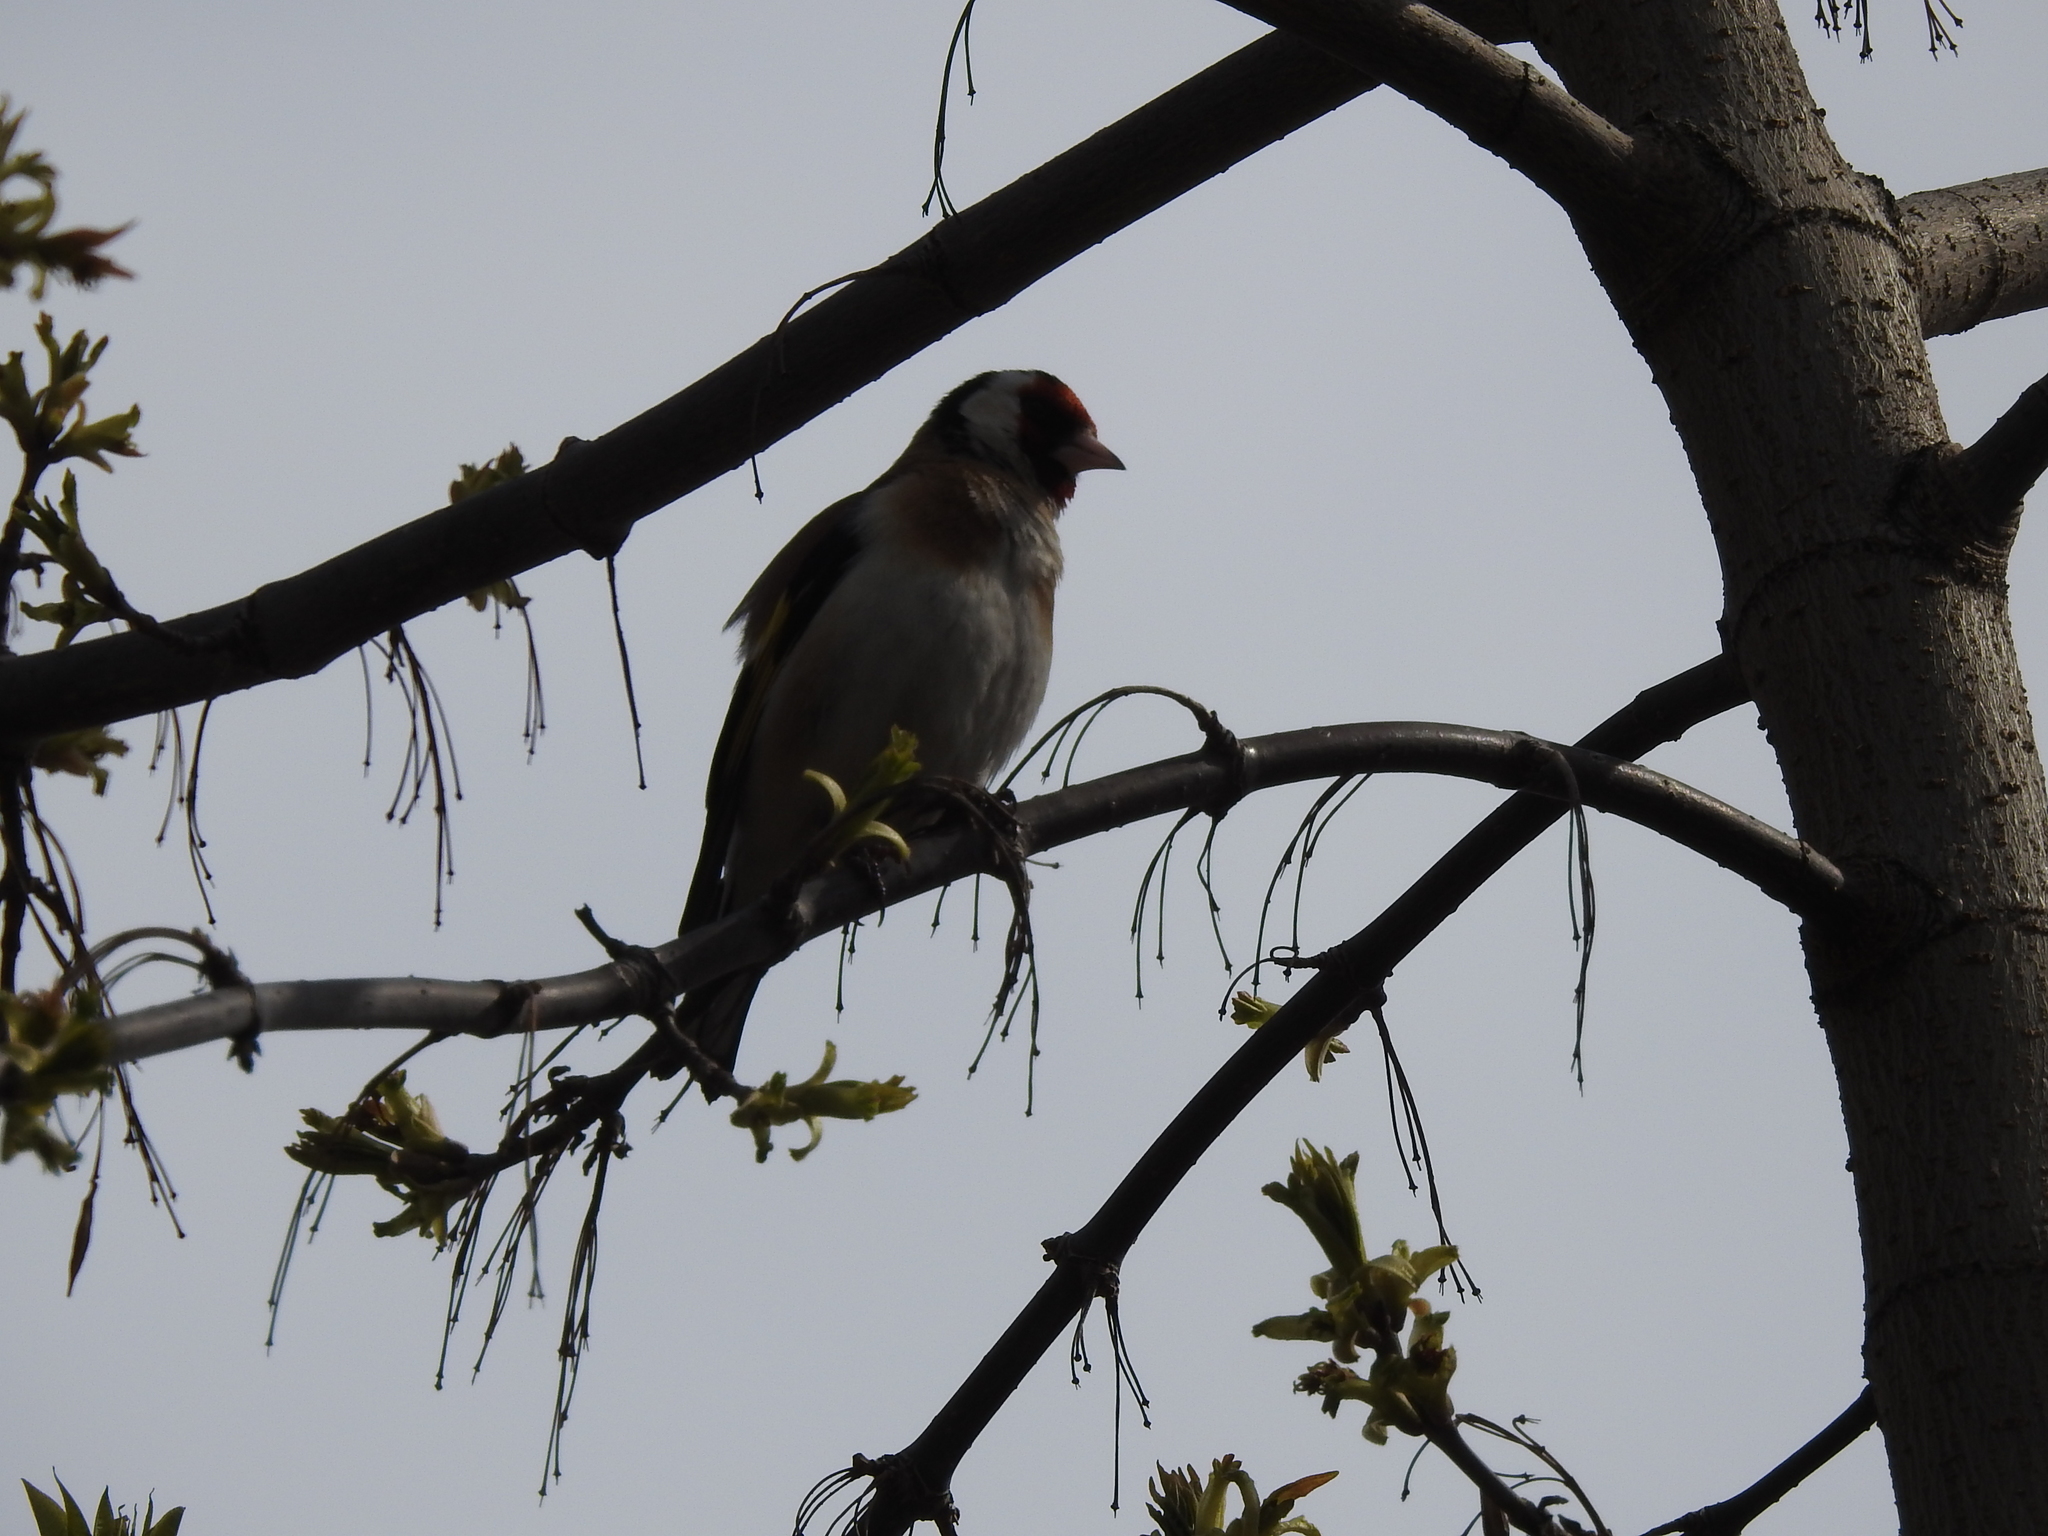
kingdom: Animalia
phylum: Chordata
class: Aves
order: Passeriformes
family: Fringillidae
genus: Carduelis
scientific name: Carduelis carduelis
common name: European goldfinch
